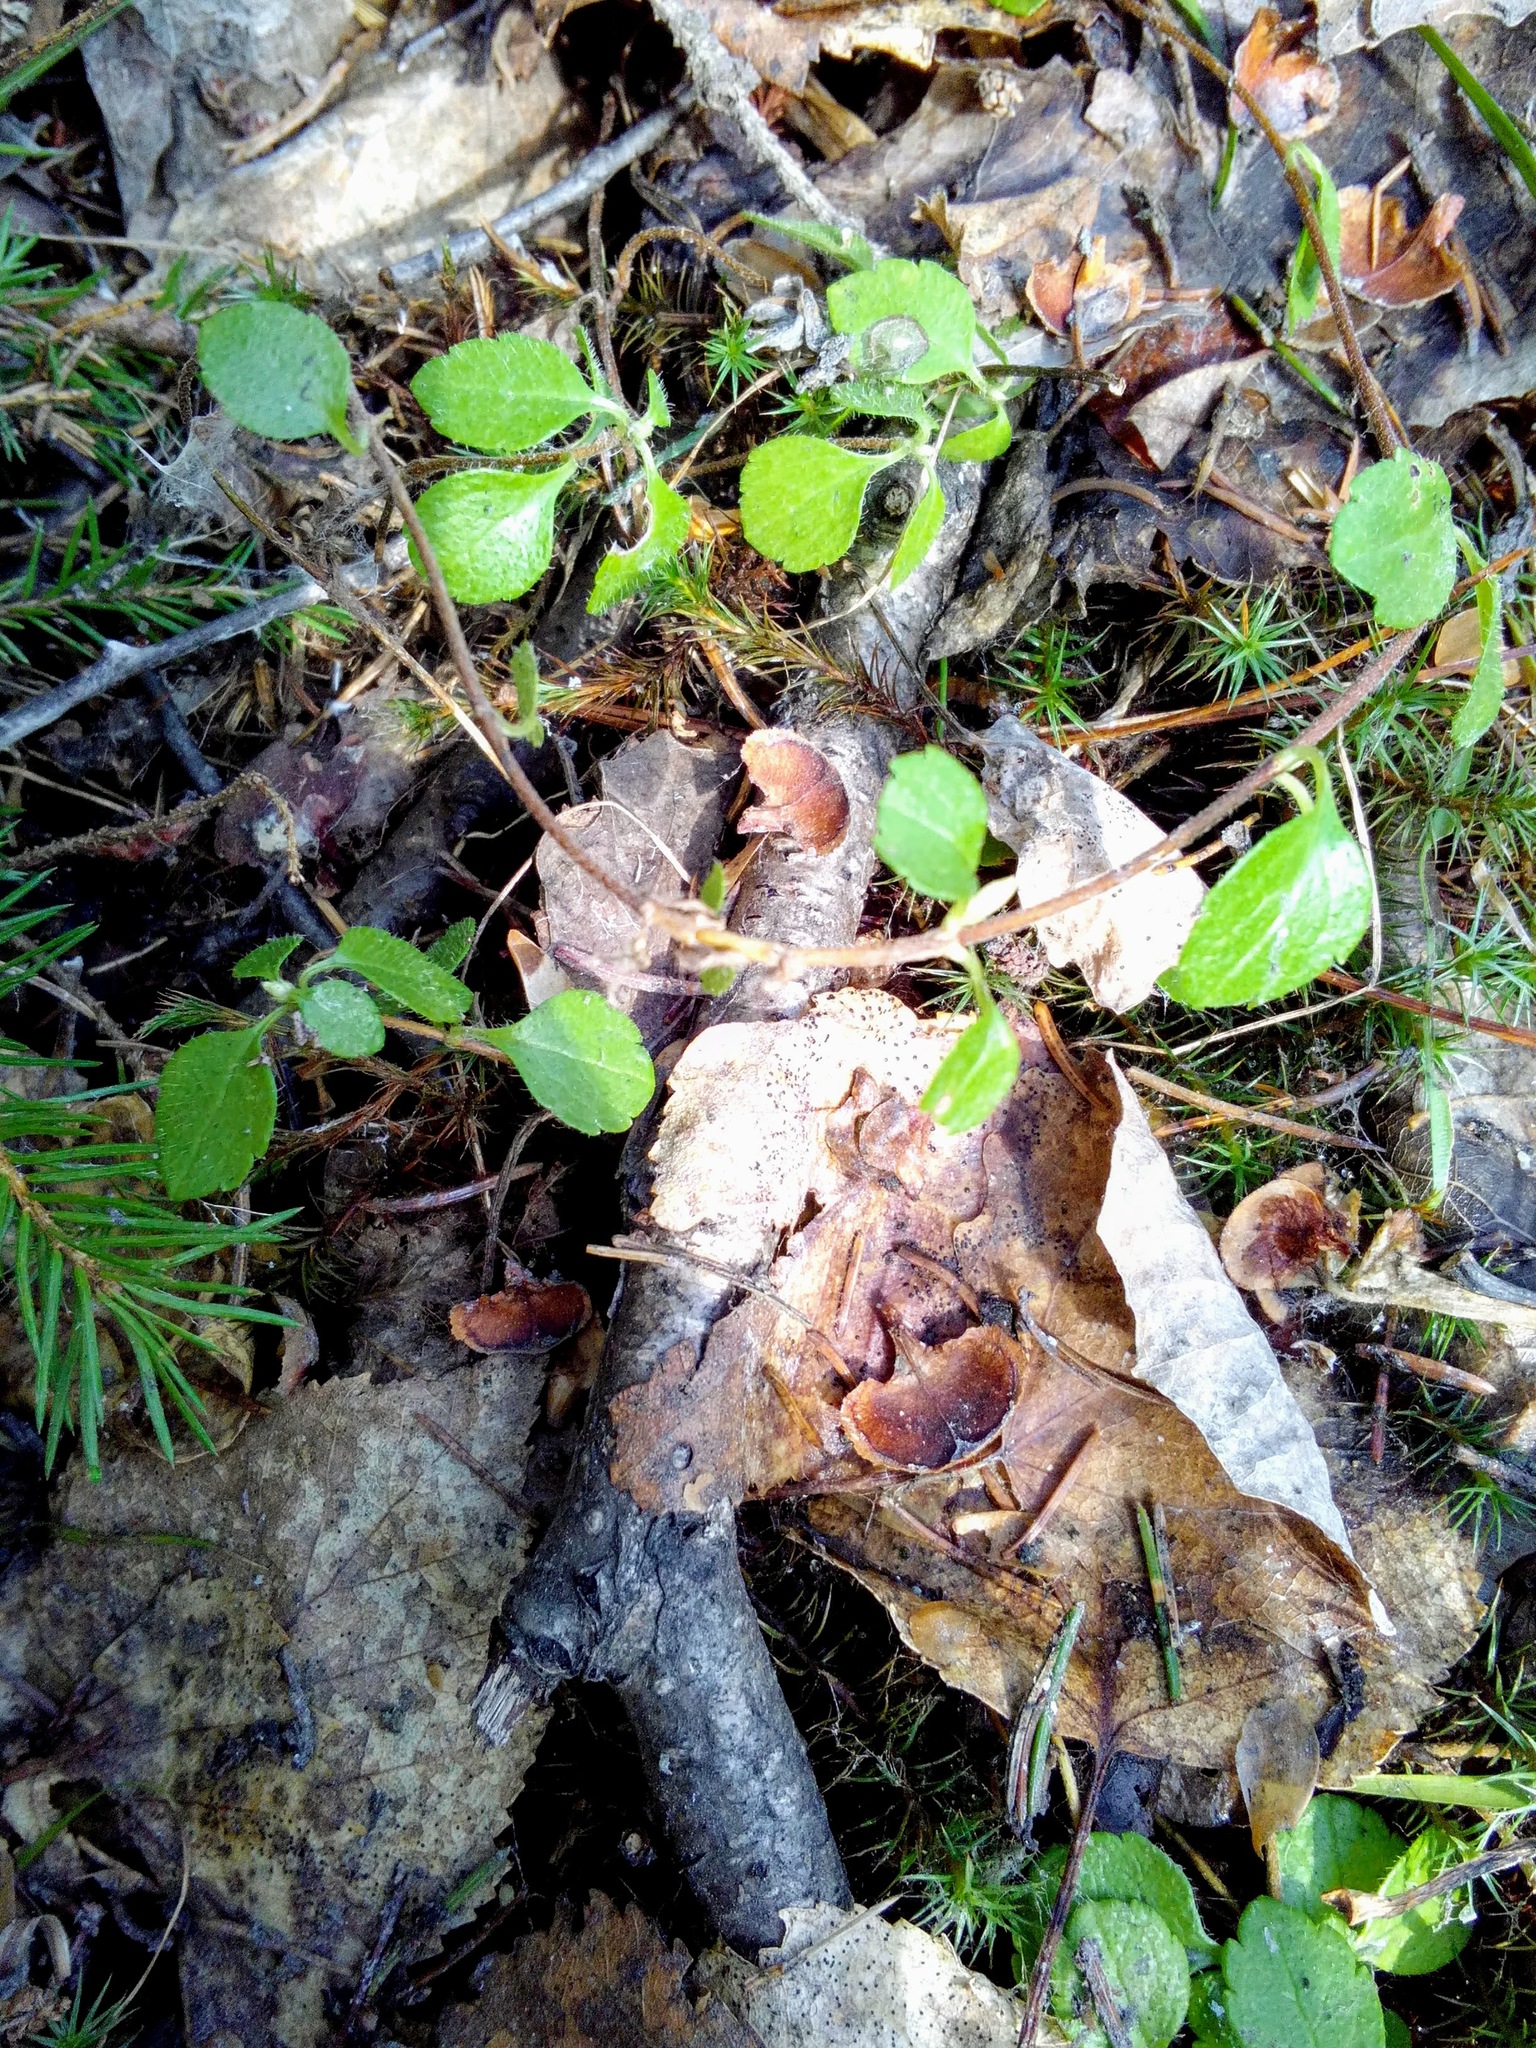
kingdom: Plantae
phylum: Tracheophyta
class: Magnoliopsida
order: Dipsacales
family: Caprifoliaceae
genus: Linnaea
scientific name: Linnaea borealis
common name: Twinflower
